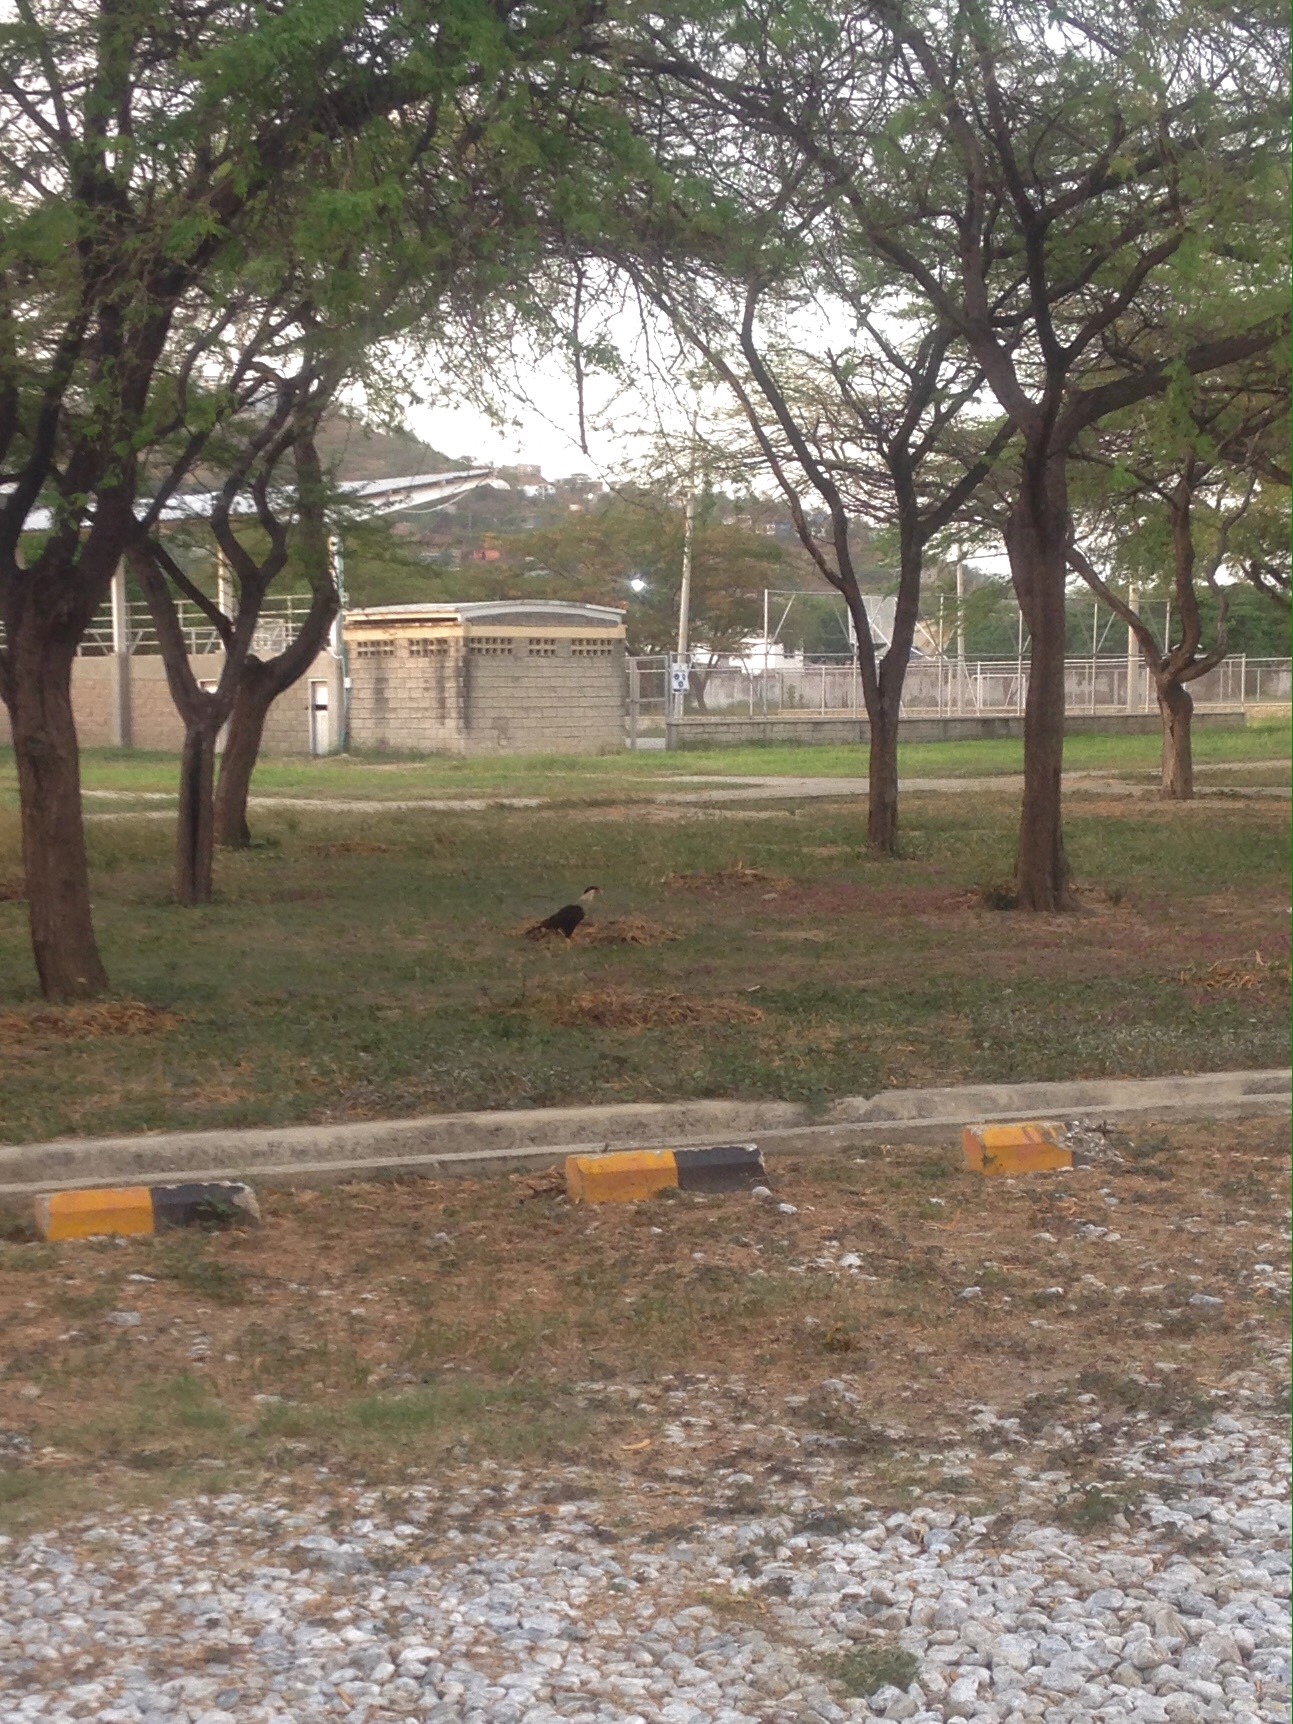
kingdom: Animalia
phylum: Chordata
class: Aves
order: Falconiformes
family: Falconidae
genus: Caracara
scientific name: Caracara plancus
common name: Southern caracara
